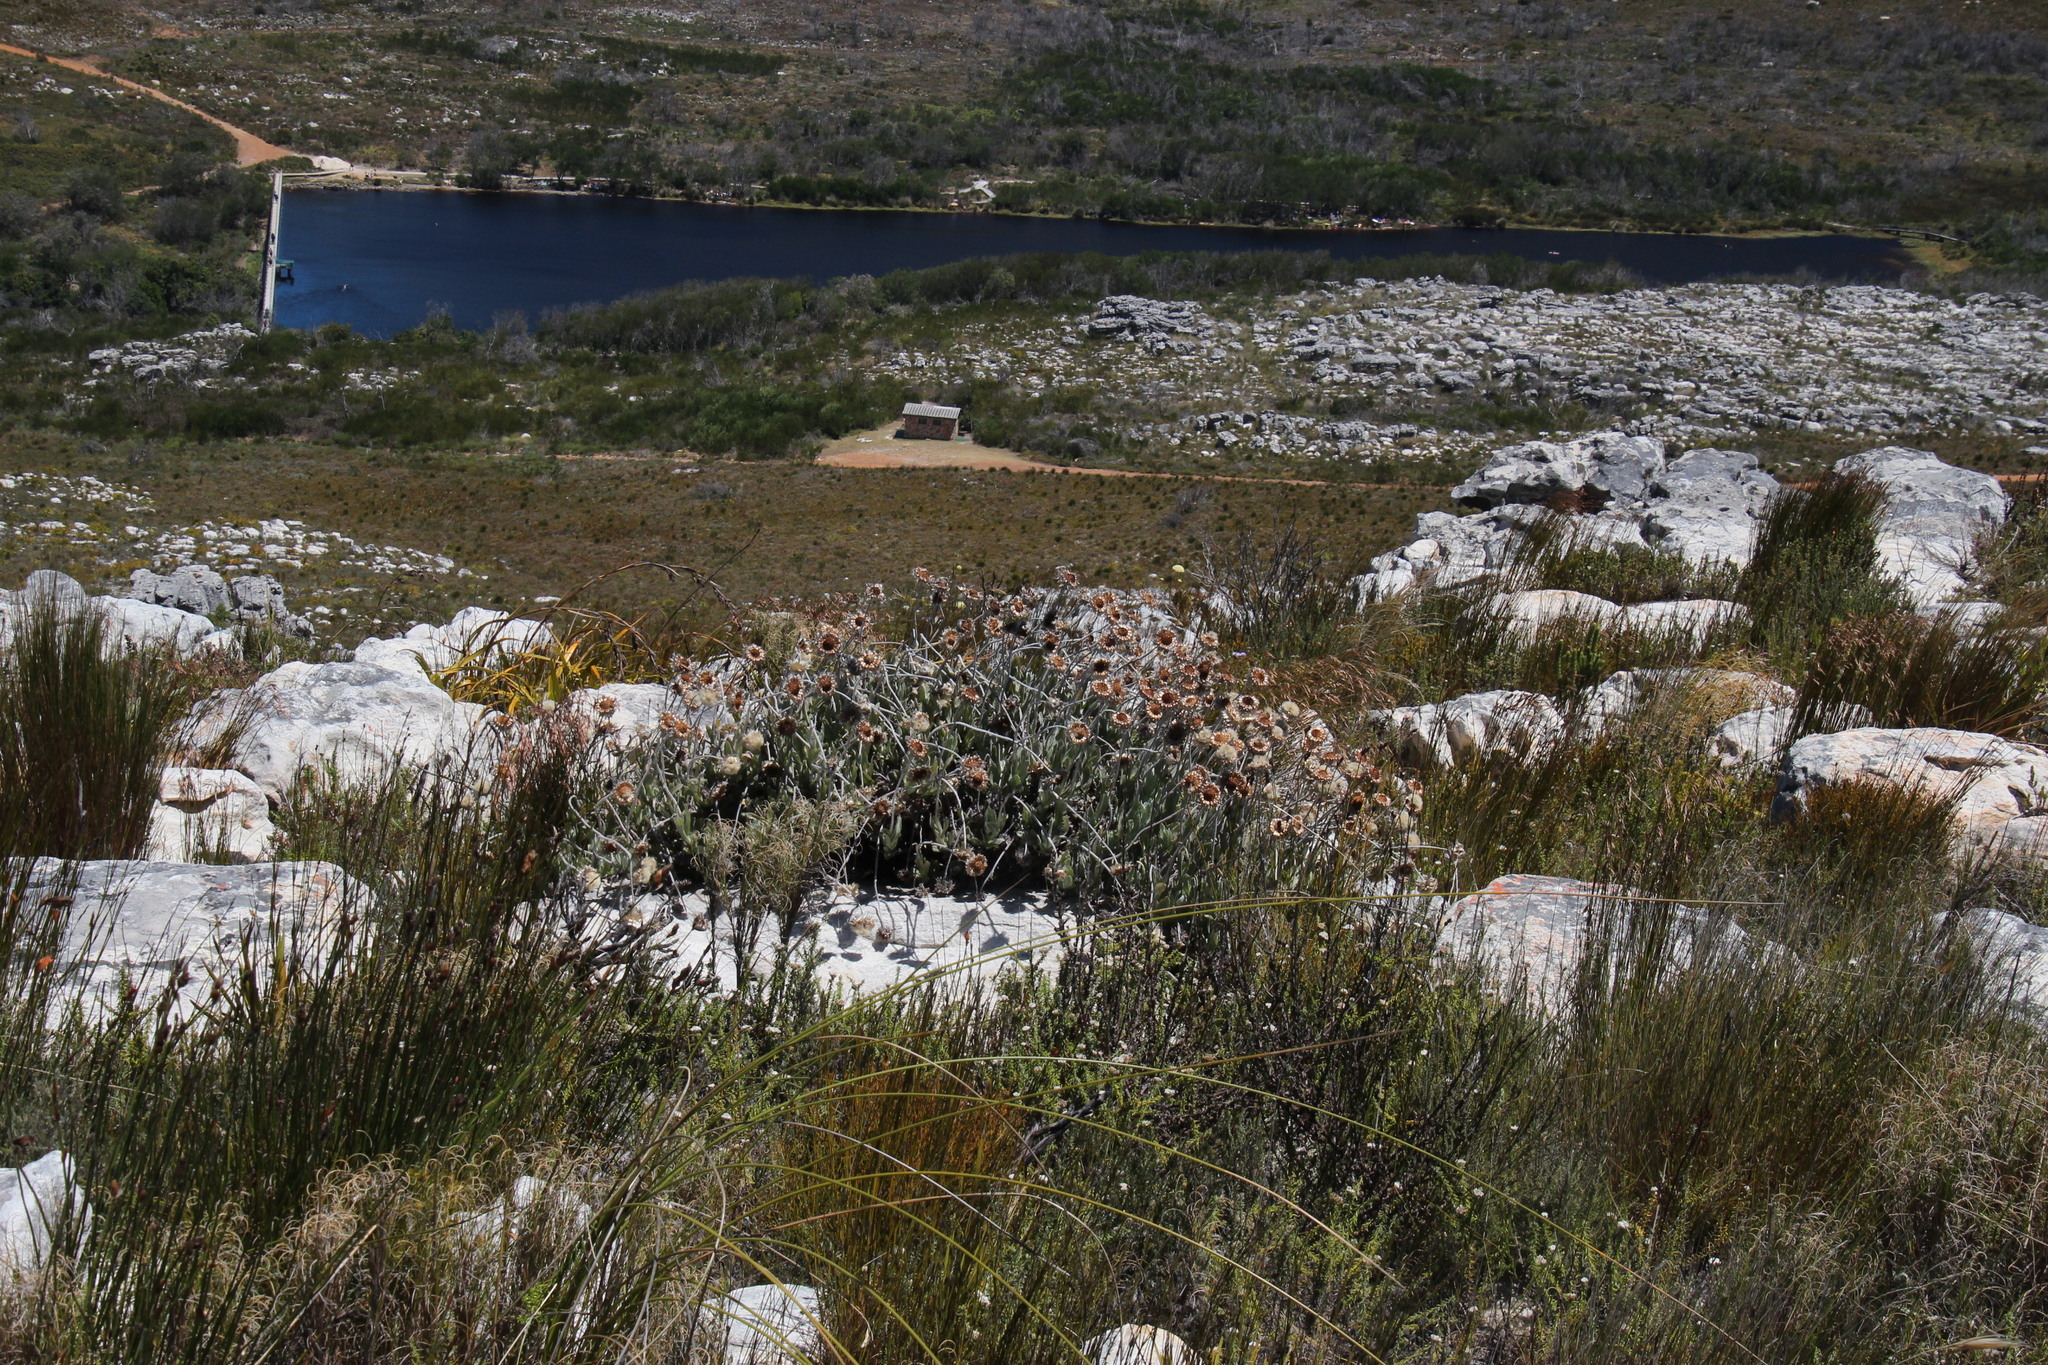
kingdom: Plantae
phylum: Tracheophyta
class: Magnoliopsida
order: Asterales
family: Asteraceae
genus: Syncarpha
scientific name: Syncarpha speciosissima
